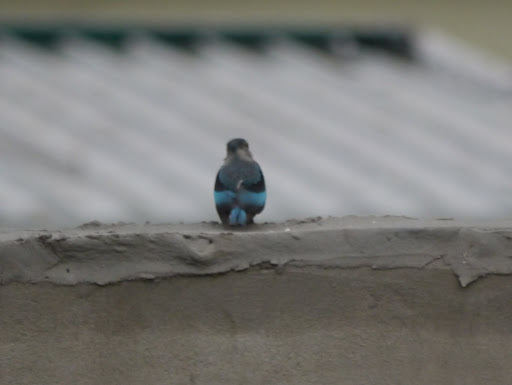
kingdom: Animalia
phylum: Chordata
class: Aves
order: Coraciiformes
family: Alcedinidae
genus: Halcyon
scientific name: Halcyon senegalensis
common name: Woodland kingfisher
